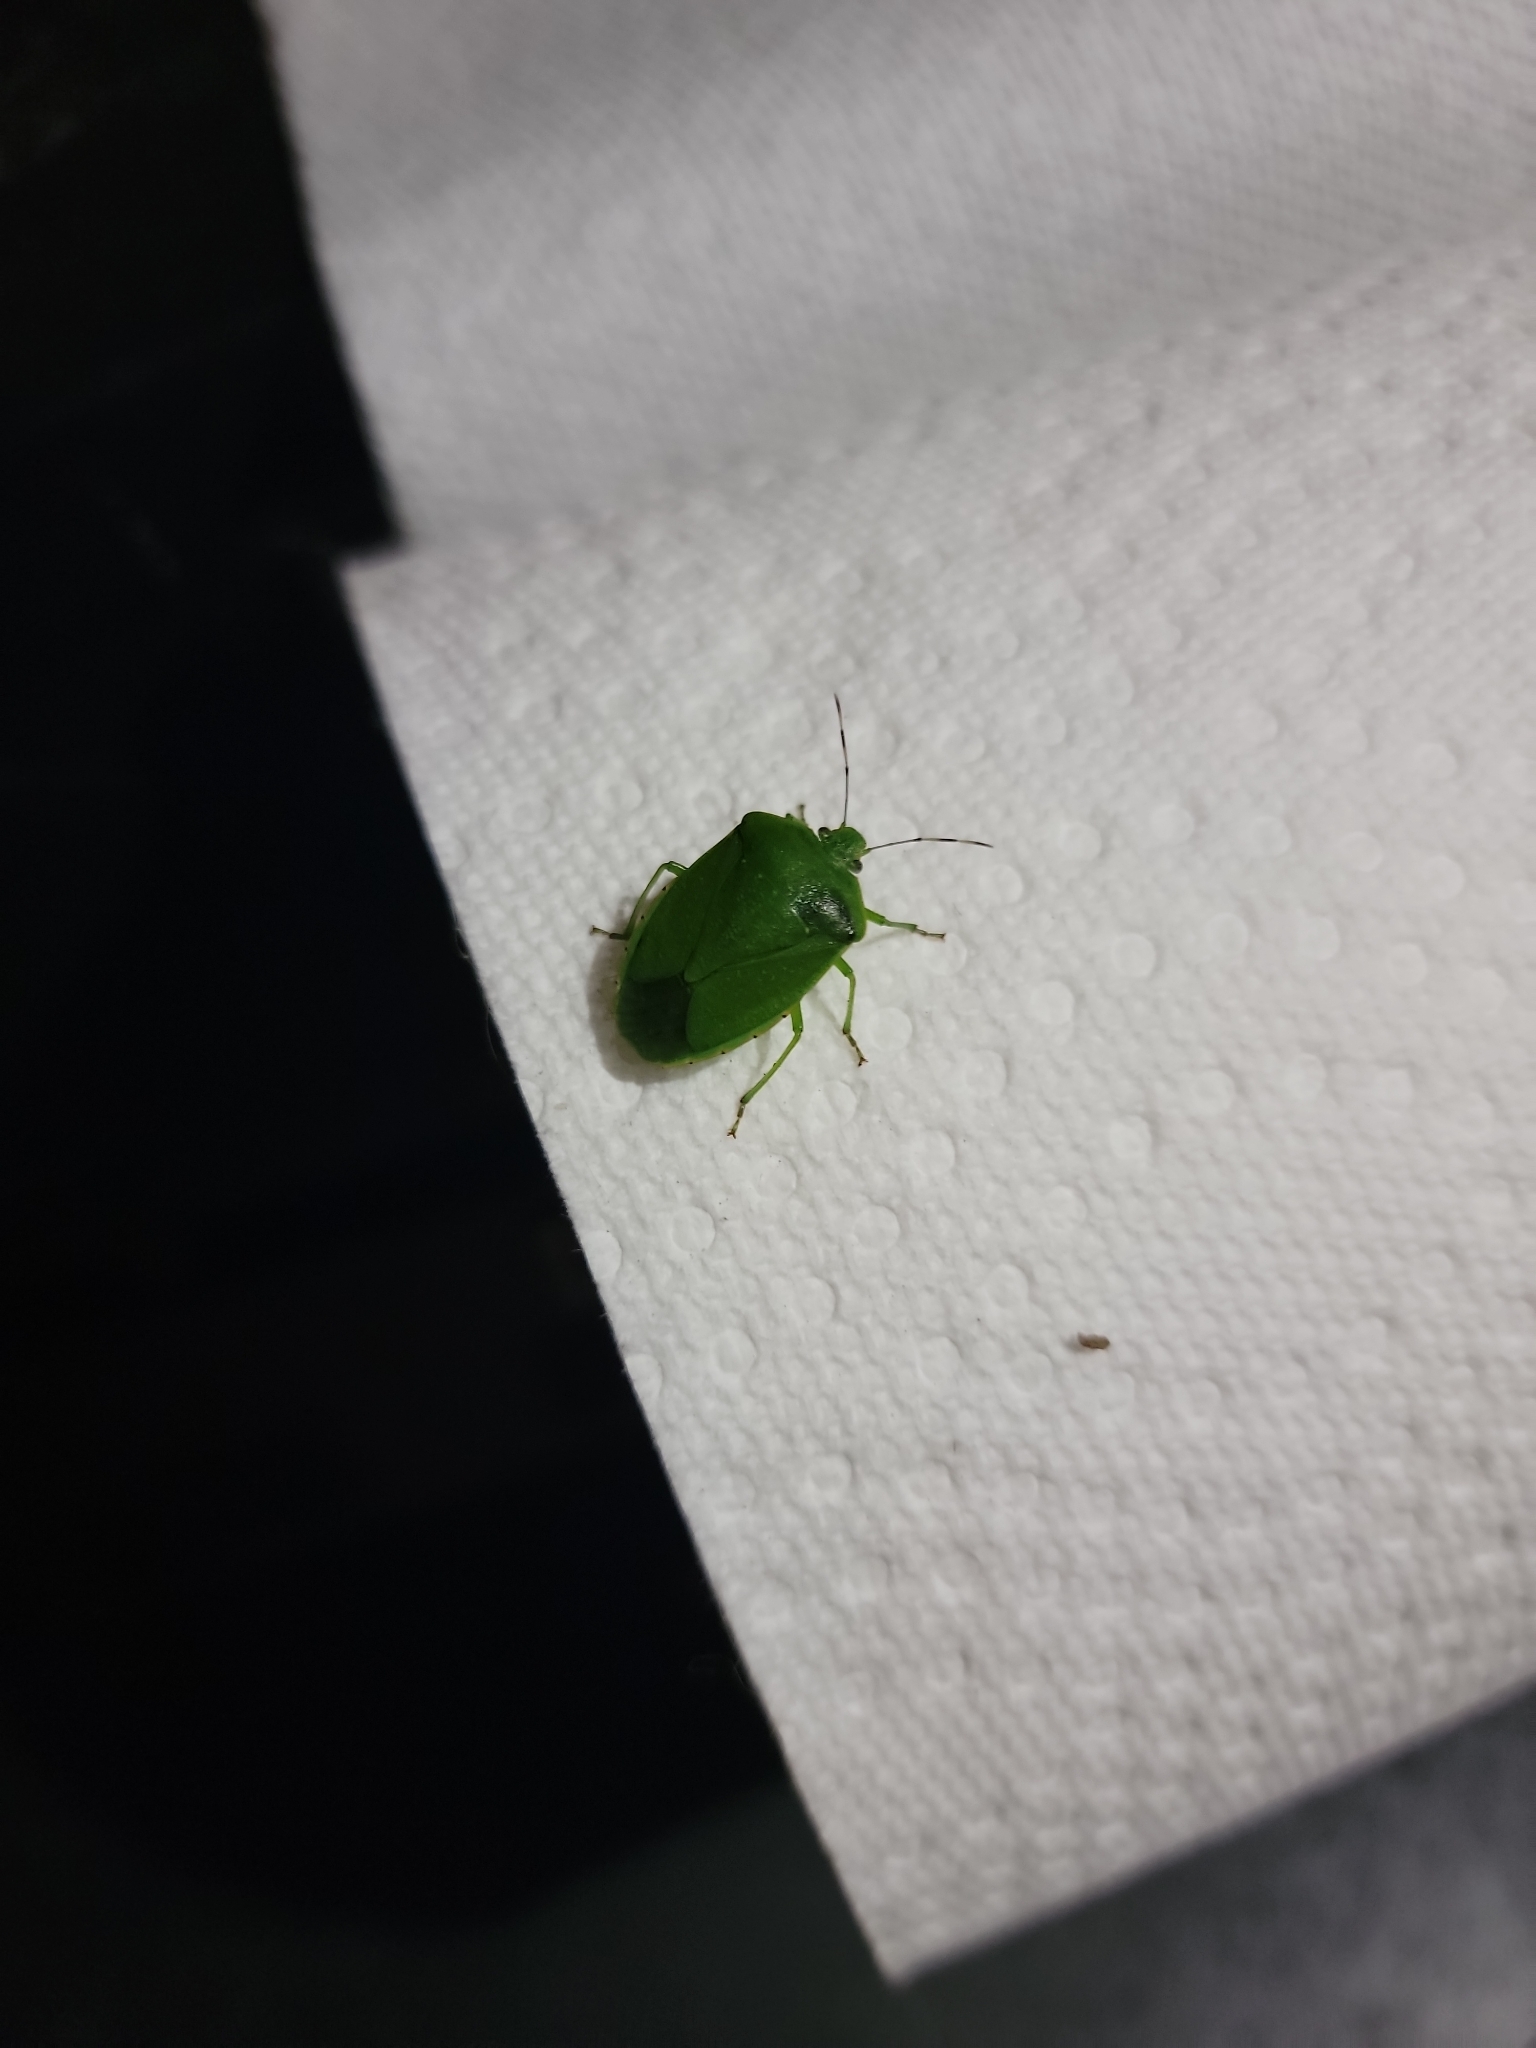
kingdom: Animalia
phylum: Arthropoda
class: Insecta
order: Hemiptera
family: Pentatomidae
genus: Chinavia
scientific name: Chinavia hilaris
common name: Green stink bug
